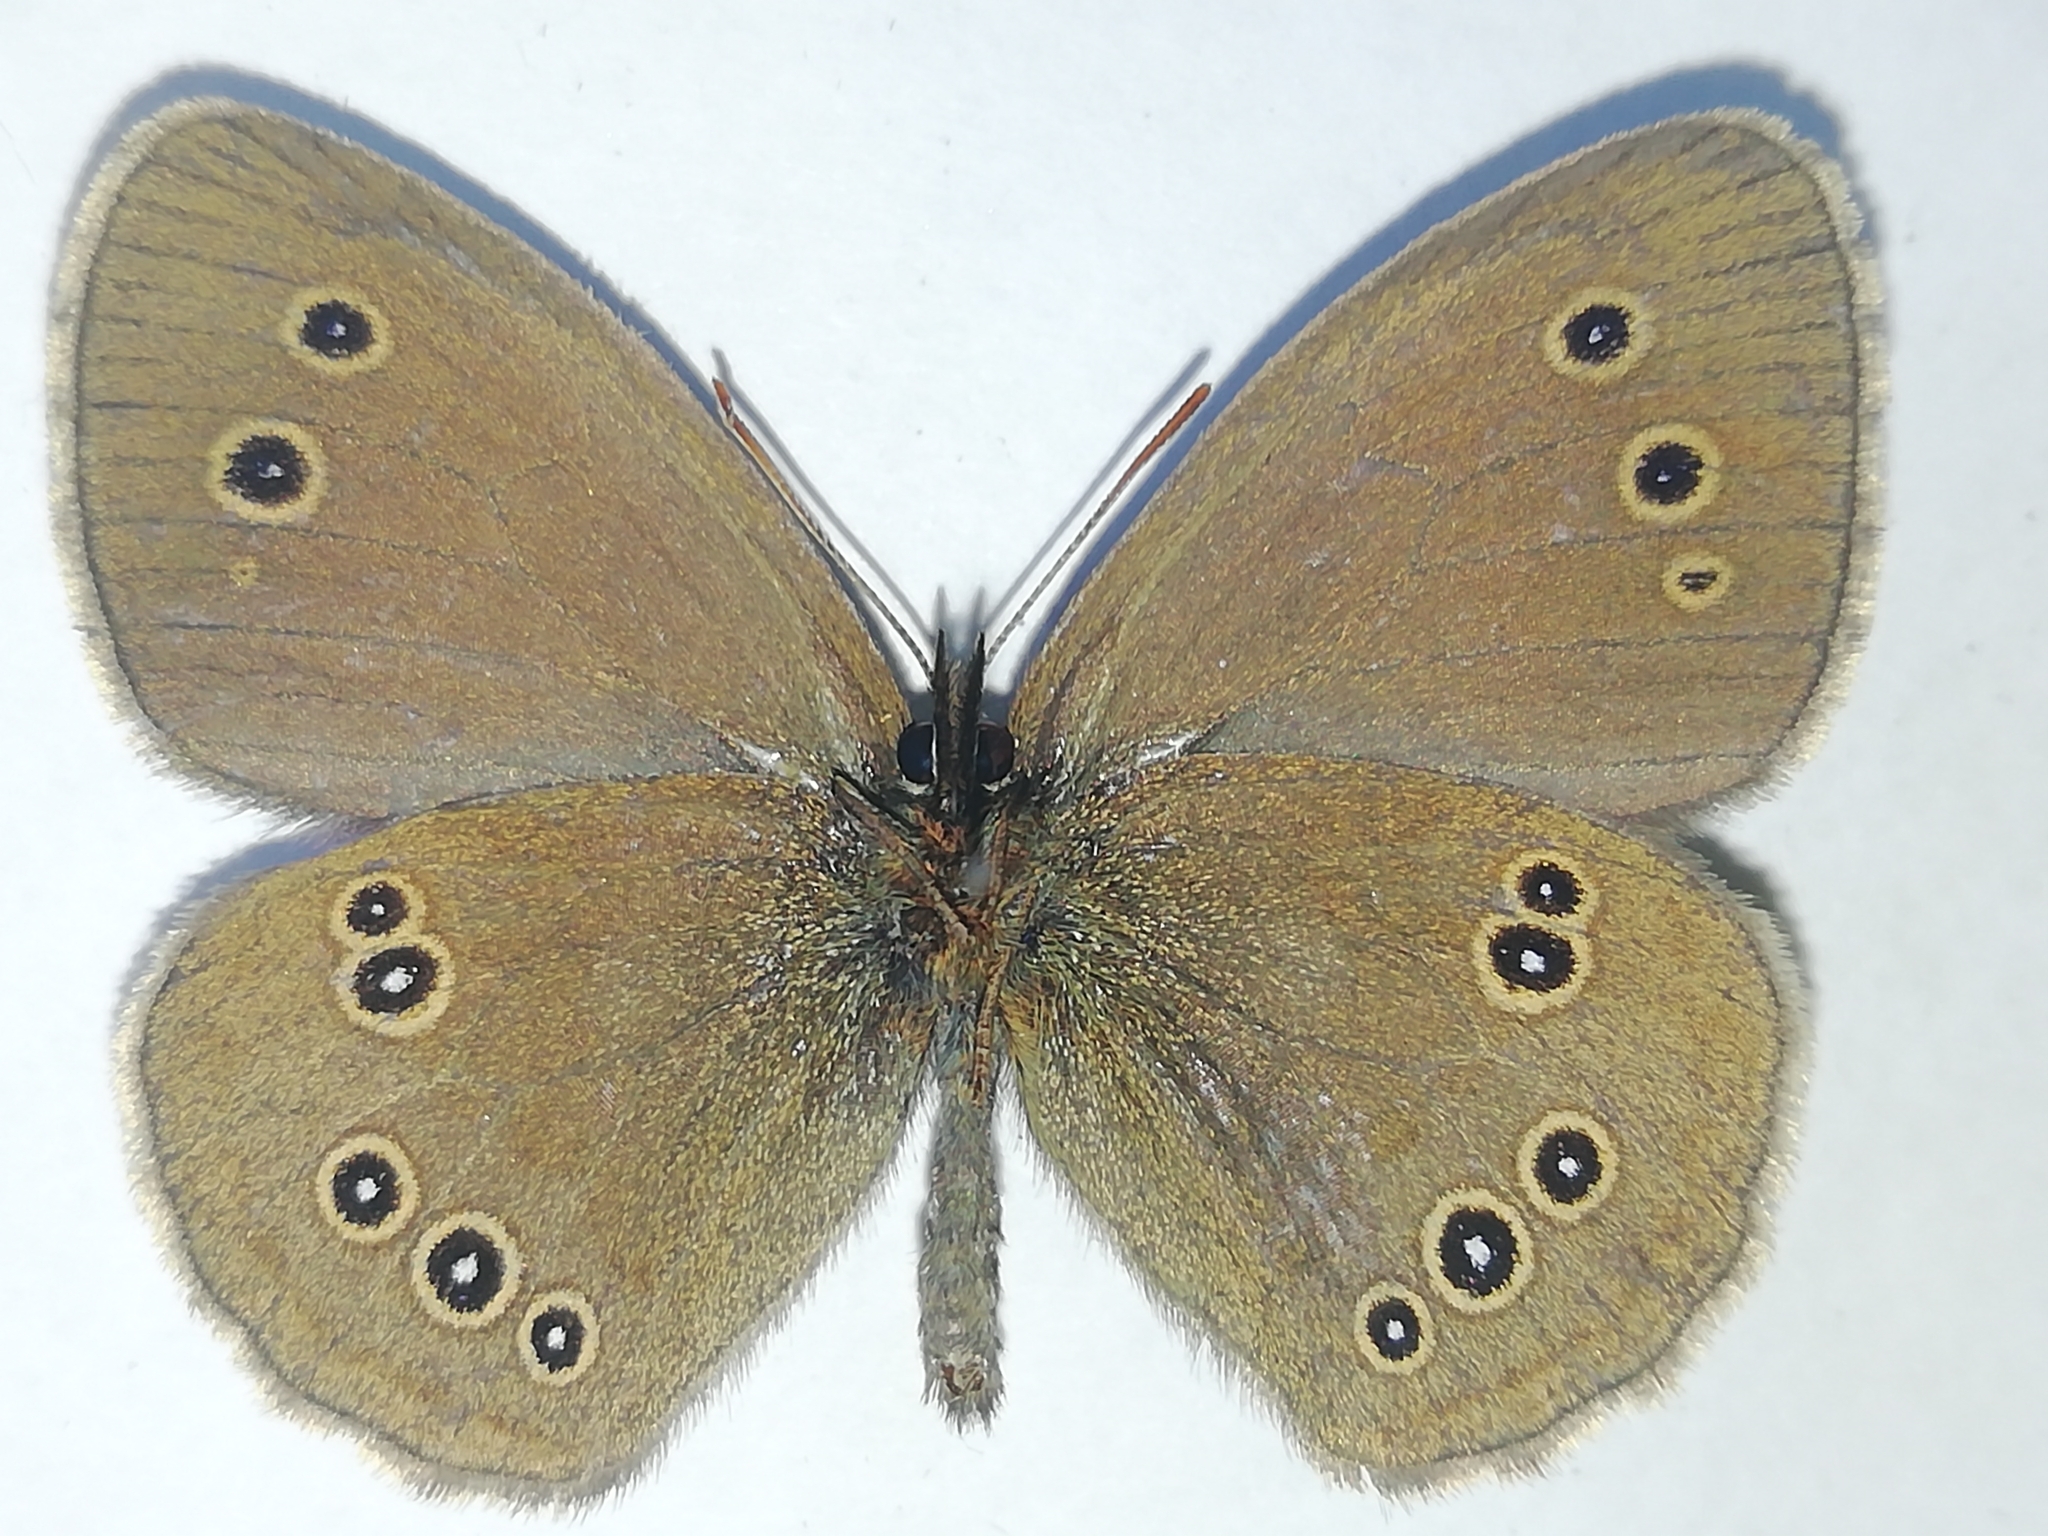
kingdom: Animalia
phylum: Arthropoda
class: Insecta
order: Lepidoptera
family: Nymphalidae
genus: Aphantopus
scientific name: Aphantopus hyperantus
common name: Ringlet
